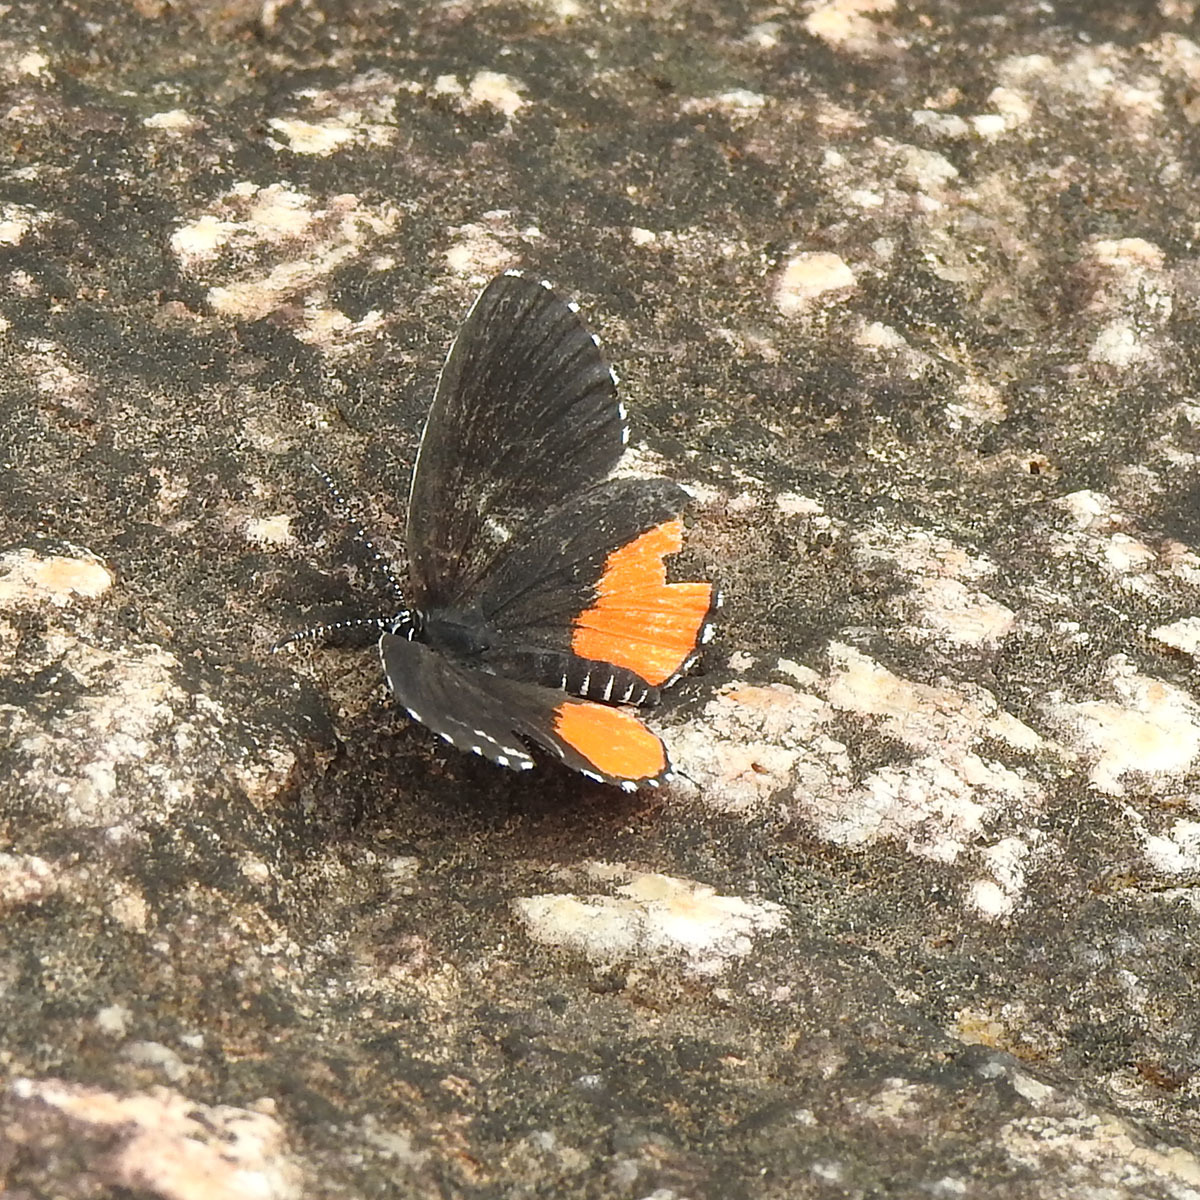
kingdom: Animalia
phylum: Arthropoda
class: Insecta
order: Lepidoptera
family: Lycaenidae
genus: Talicada
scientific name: Talicada nyseus
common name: Red pierrot
